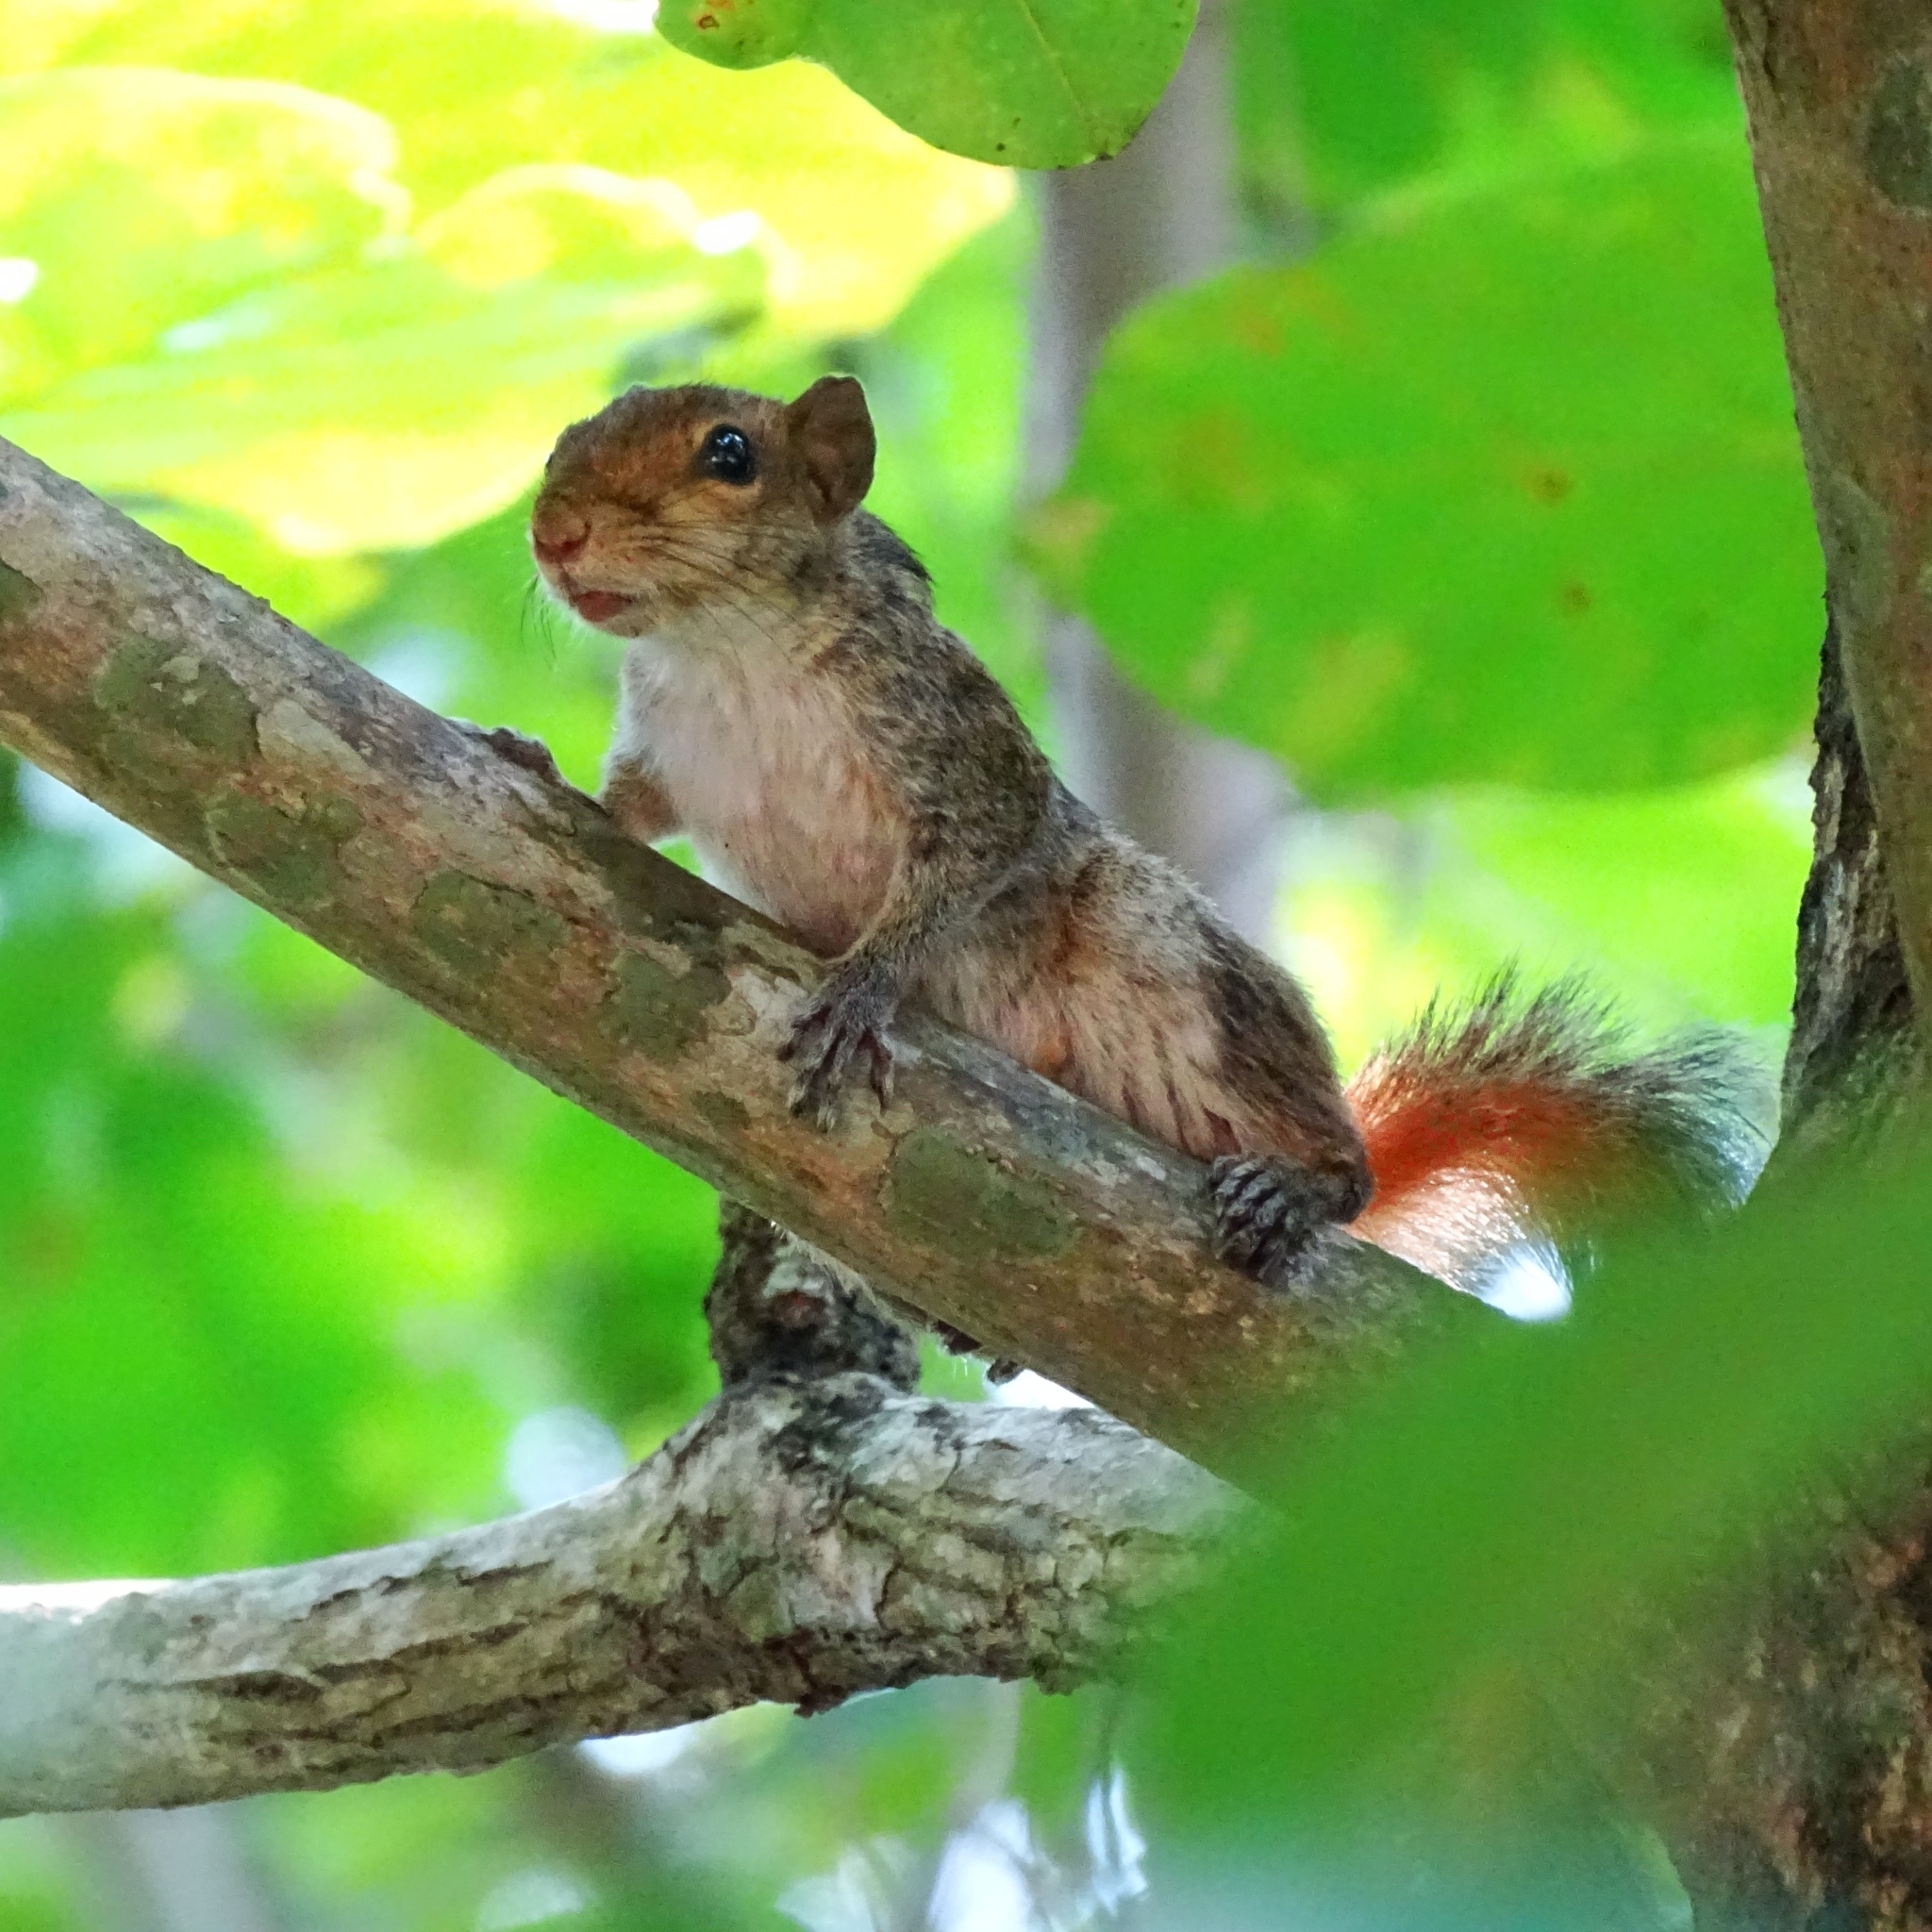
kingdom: Animalia
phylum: Chordata
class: Mammalia
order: Rodentia
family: Sciuridae
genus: Funambulus
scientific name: Funambulus tristriatus
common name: Jungle palm squirrel
